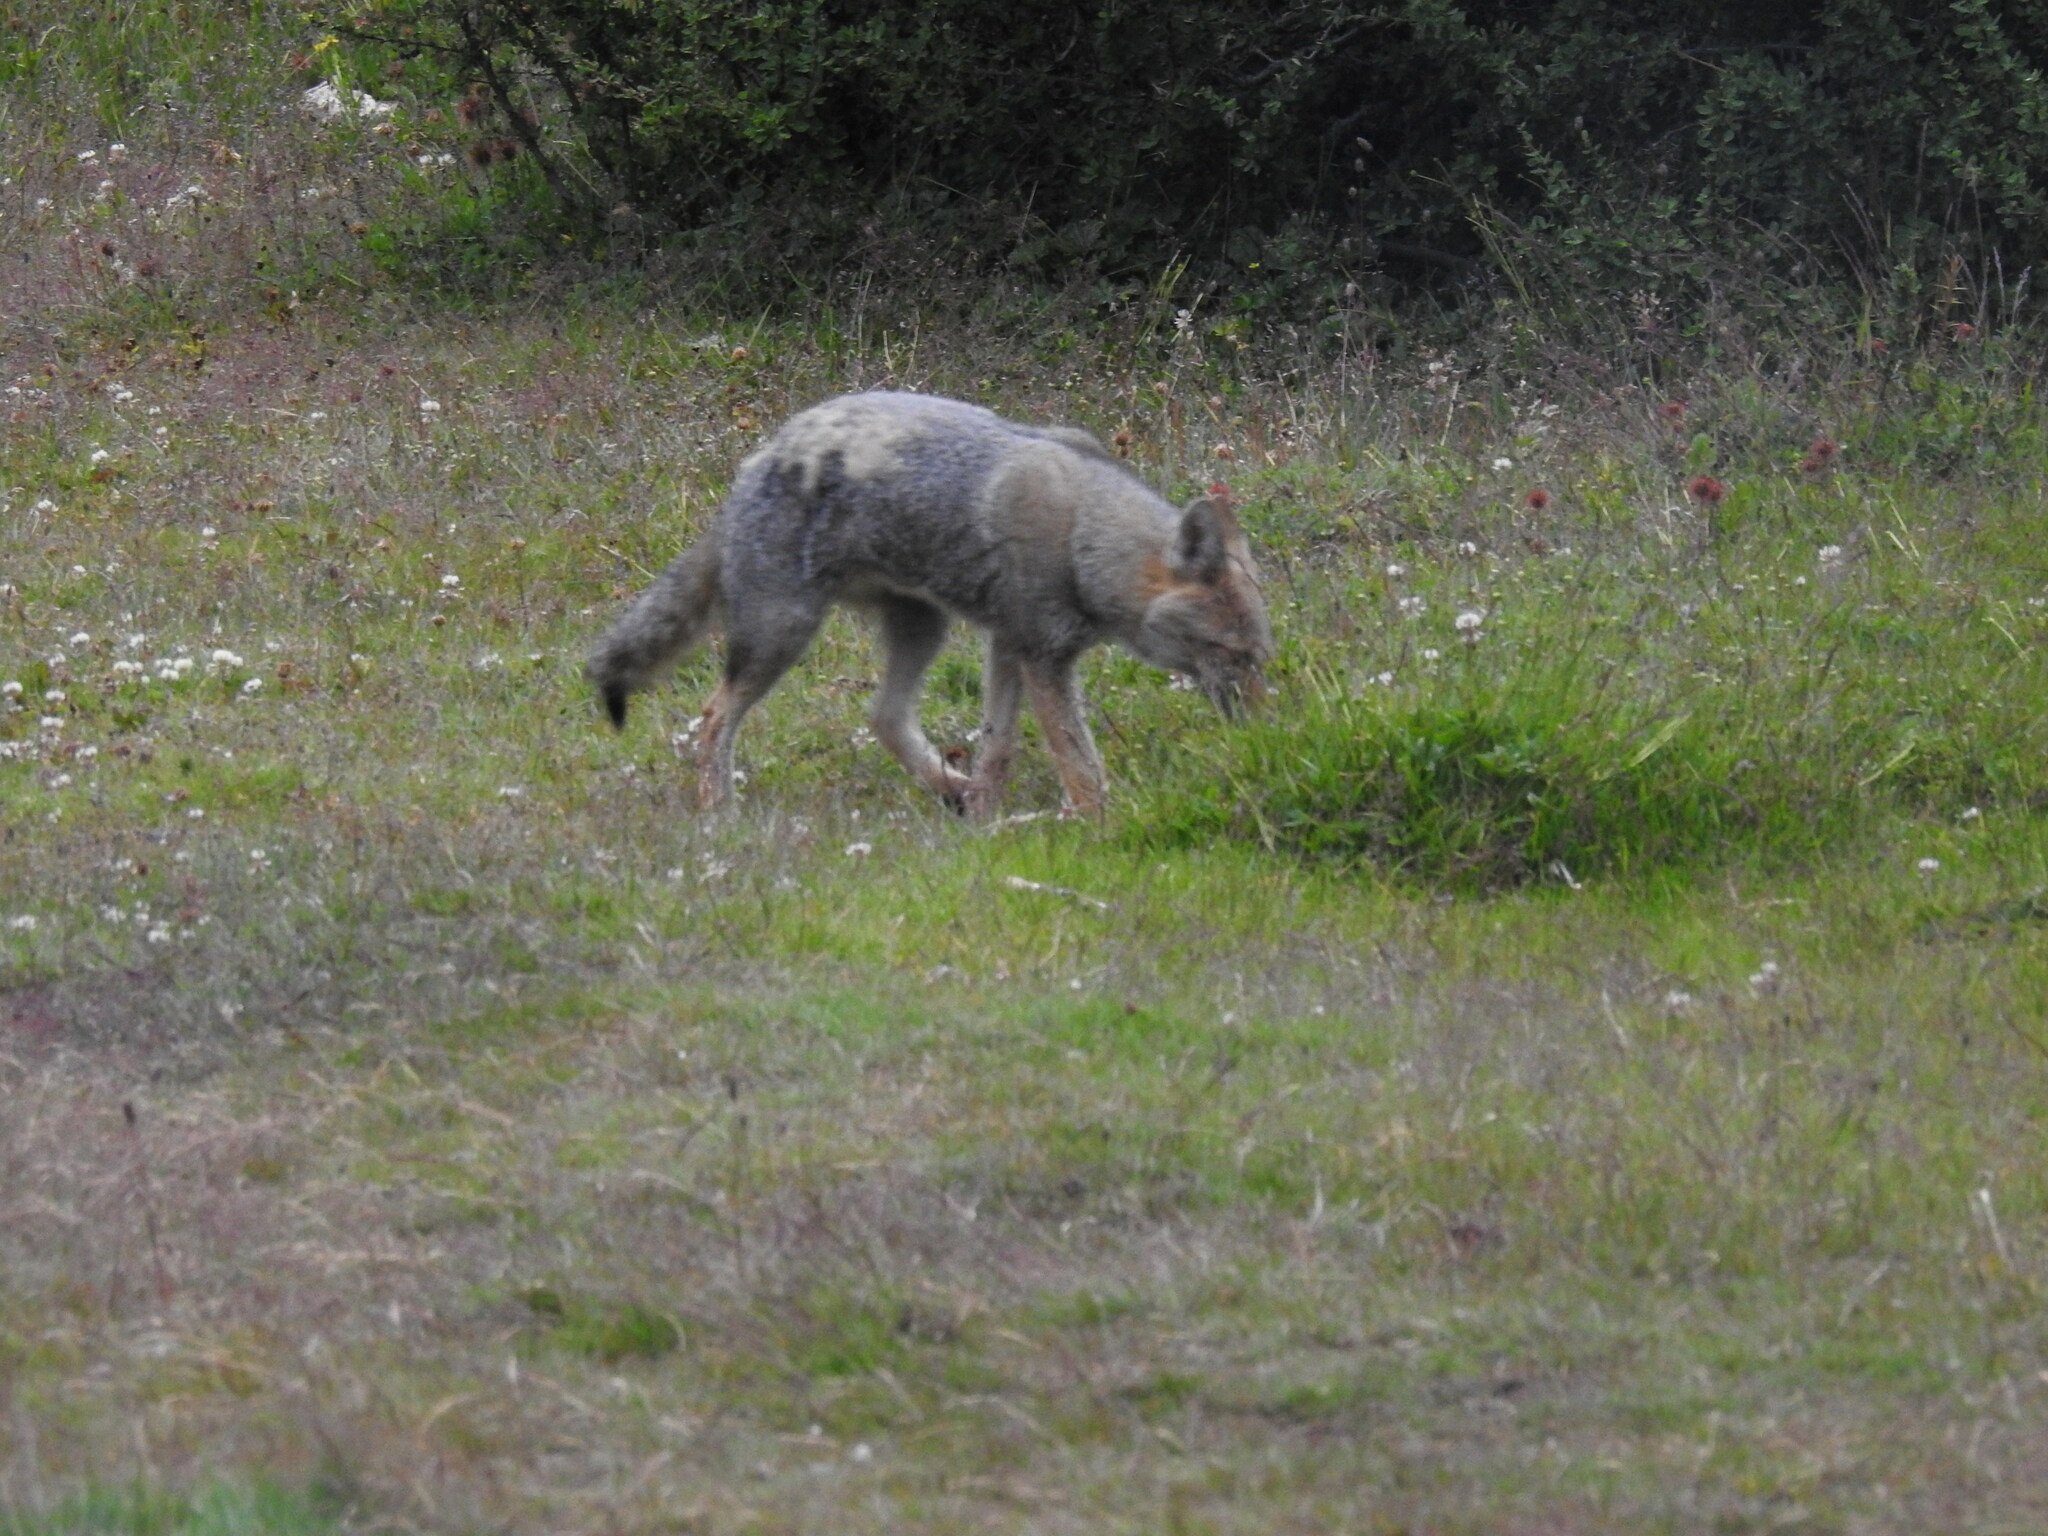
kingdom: Animalia
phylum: Chordata
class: Mammalia
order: Carnivora
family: Canidae
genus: Lycalopex
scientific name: Lycalopex gymnocercus
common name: Pampas fox
